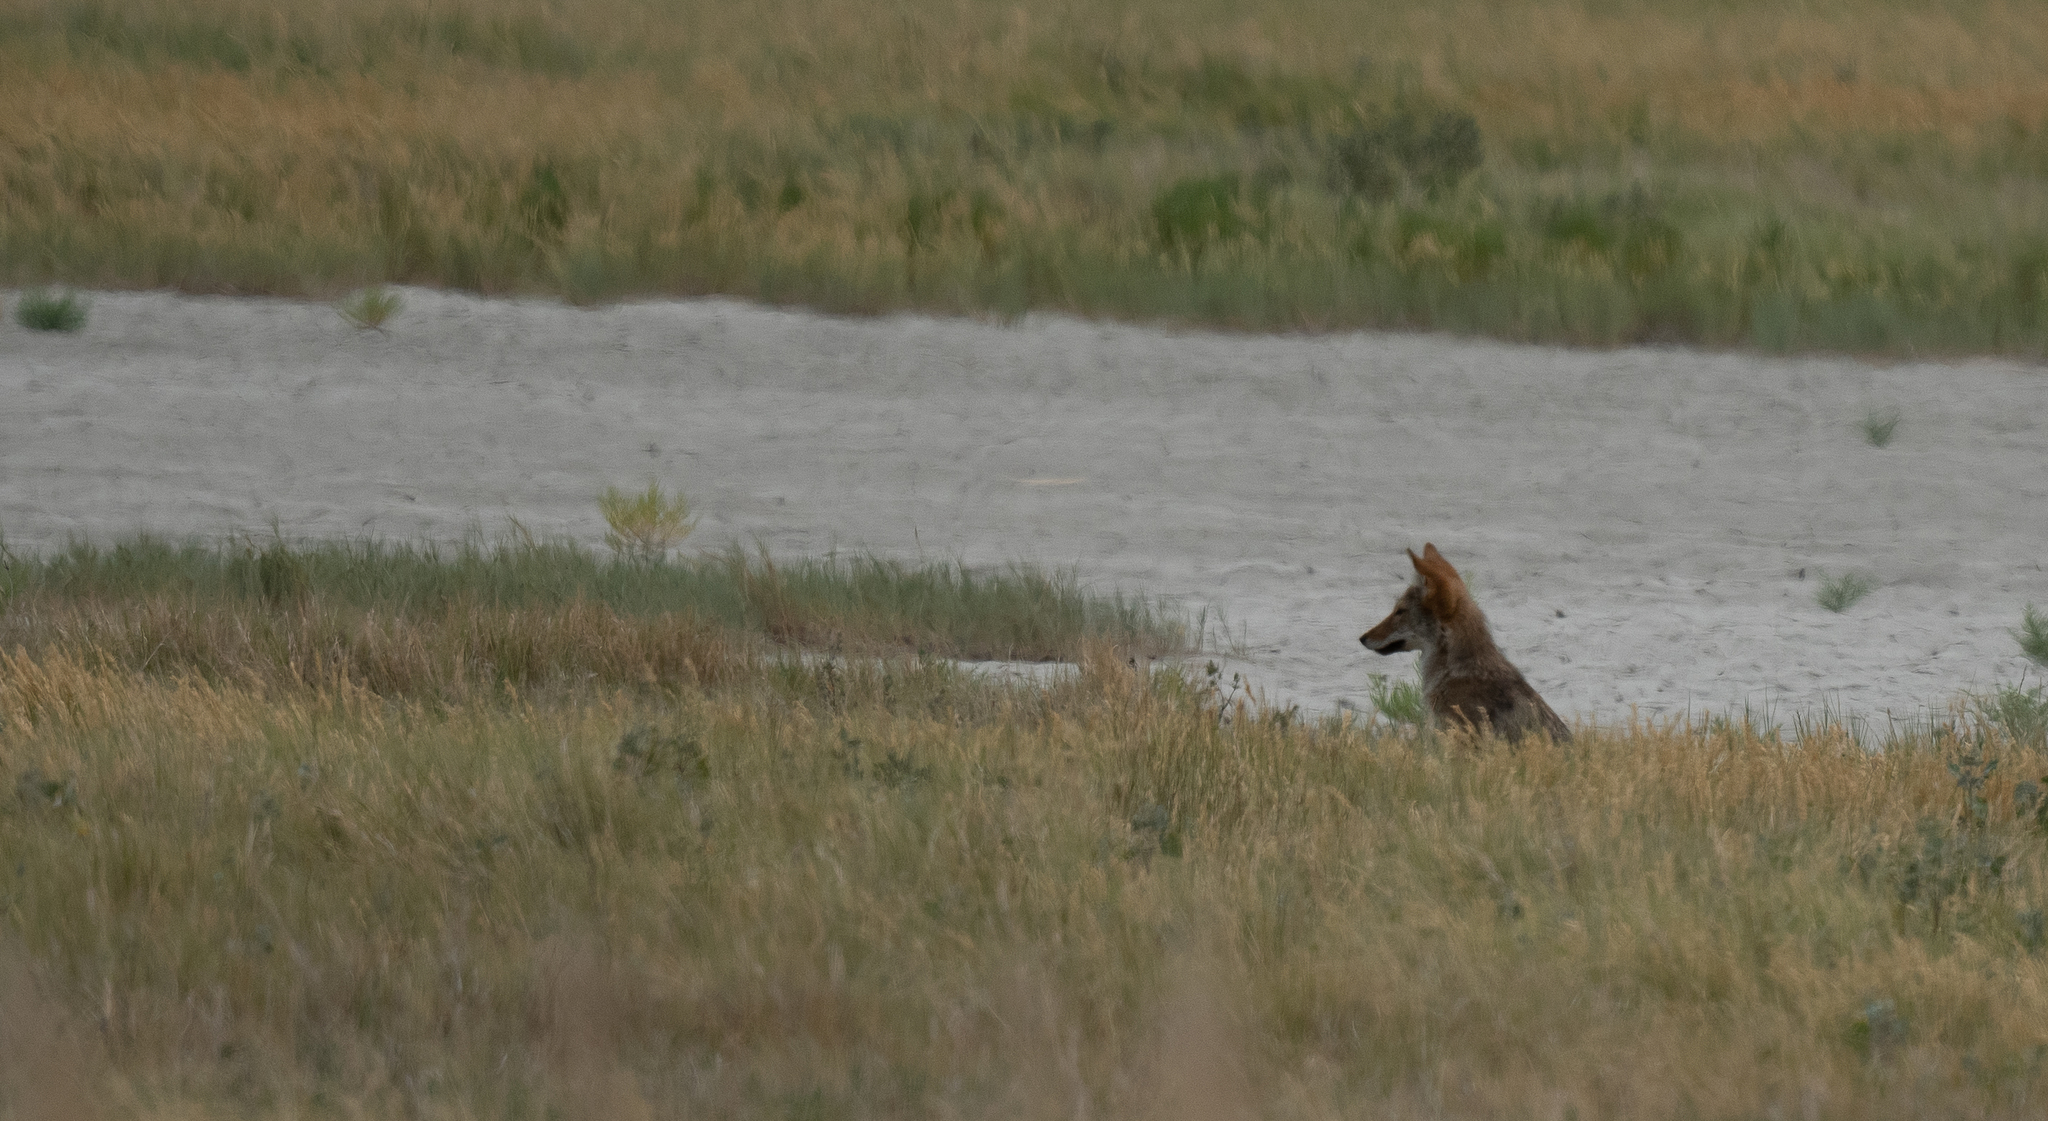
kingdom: Animalia
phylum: Chordata
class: Mammalia
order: Carnivora
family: Canidae
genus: Canis
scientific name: Canis latrans
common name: Coyote
